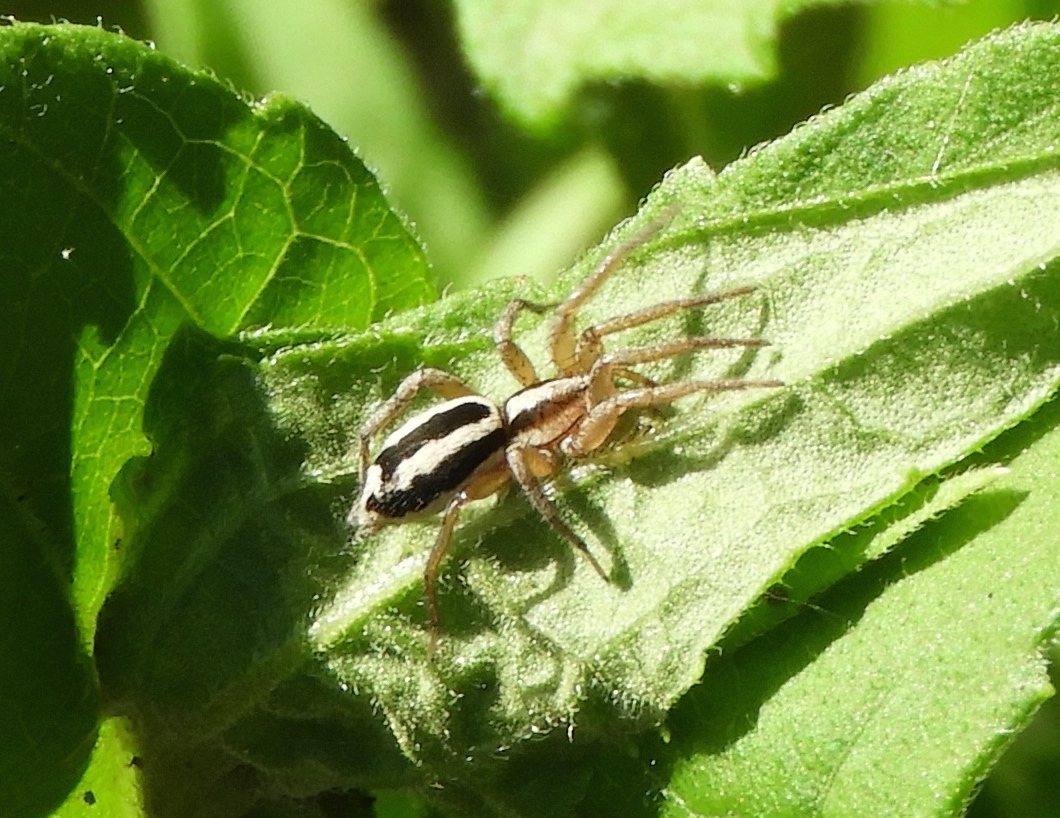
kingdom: Animalia
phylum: Arthropoda
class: Arachnida
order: Araneae
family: Gnaphosidae
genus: Cesonia
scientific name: Cesonia
